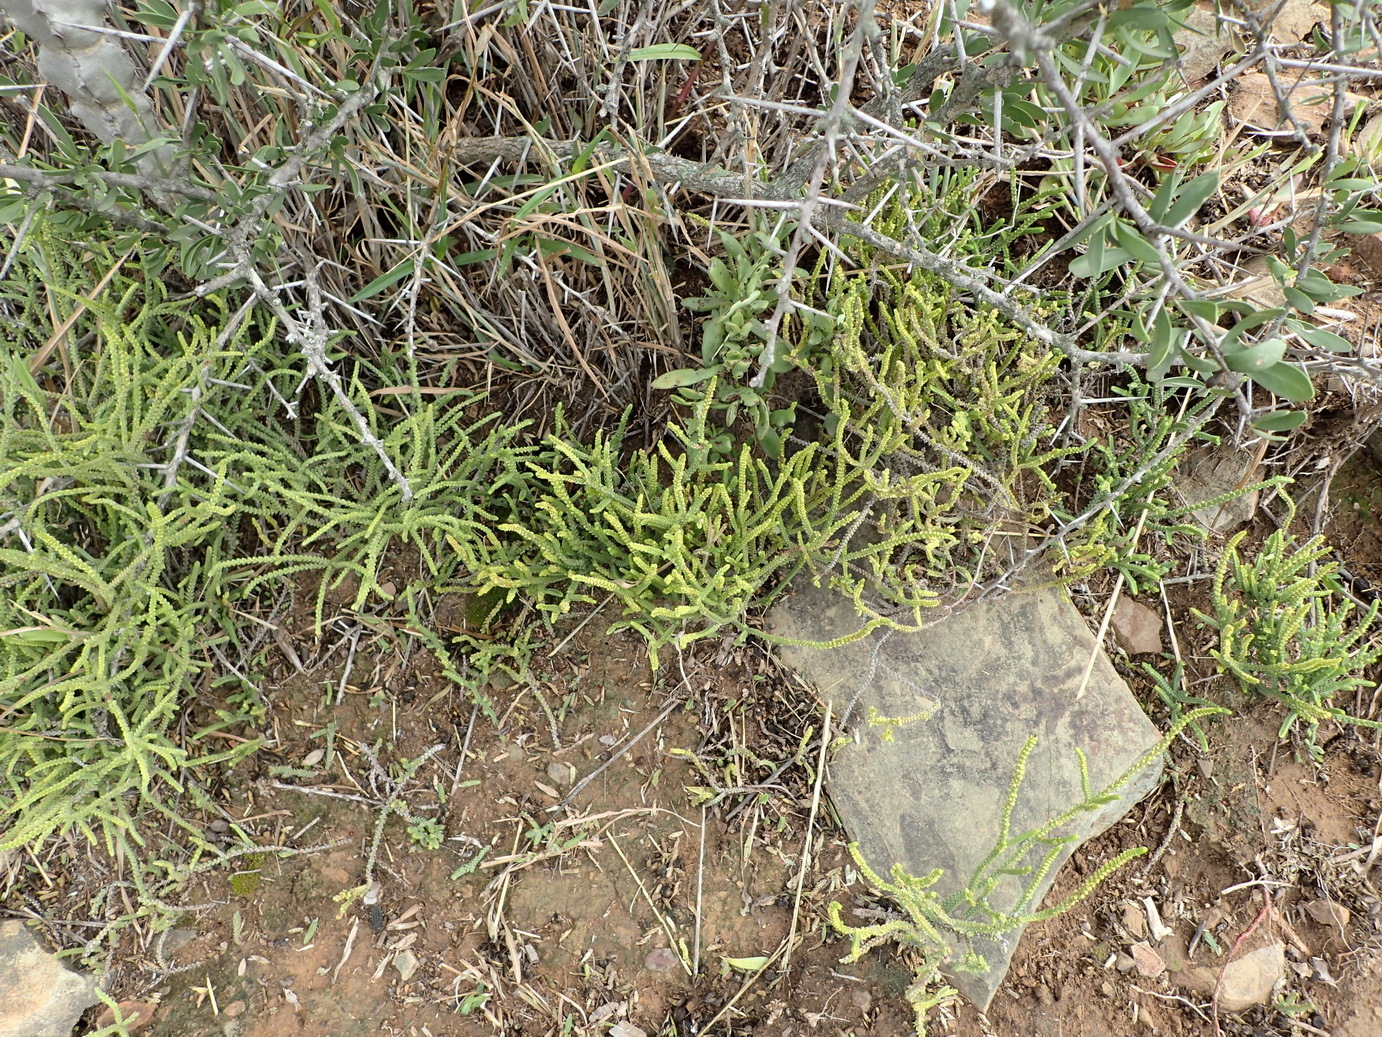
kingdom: Plantae
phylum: Tracheophyta
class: Magnoliopsida
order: Saxifragales
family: Crassulaceae
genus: Crassula
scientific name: Crassula muscosa
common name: Toy-cypress
